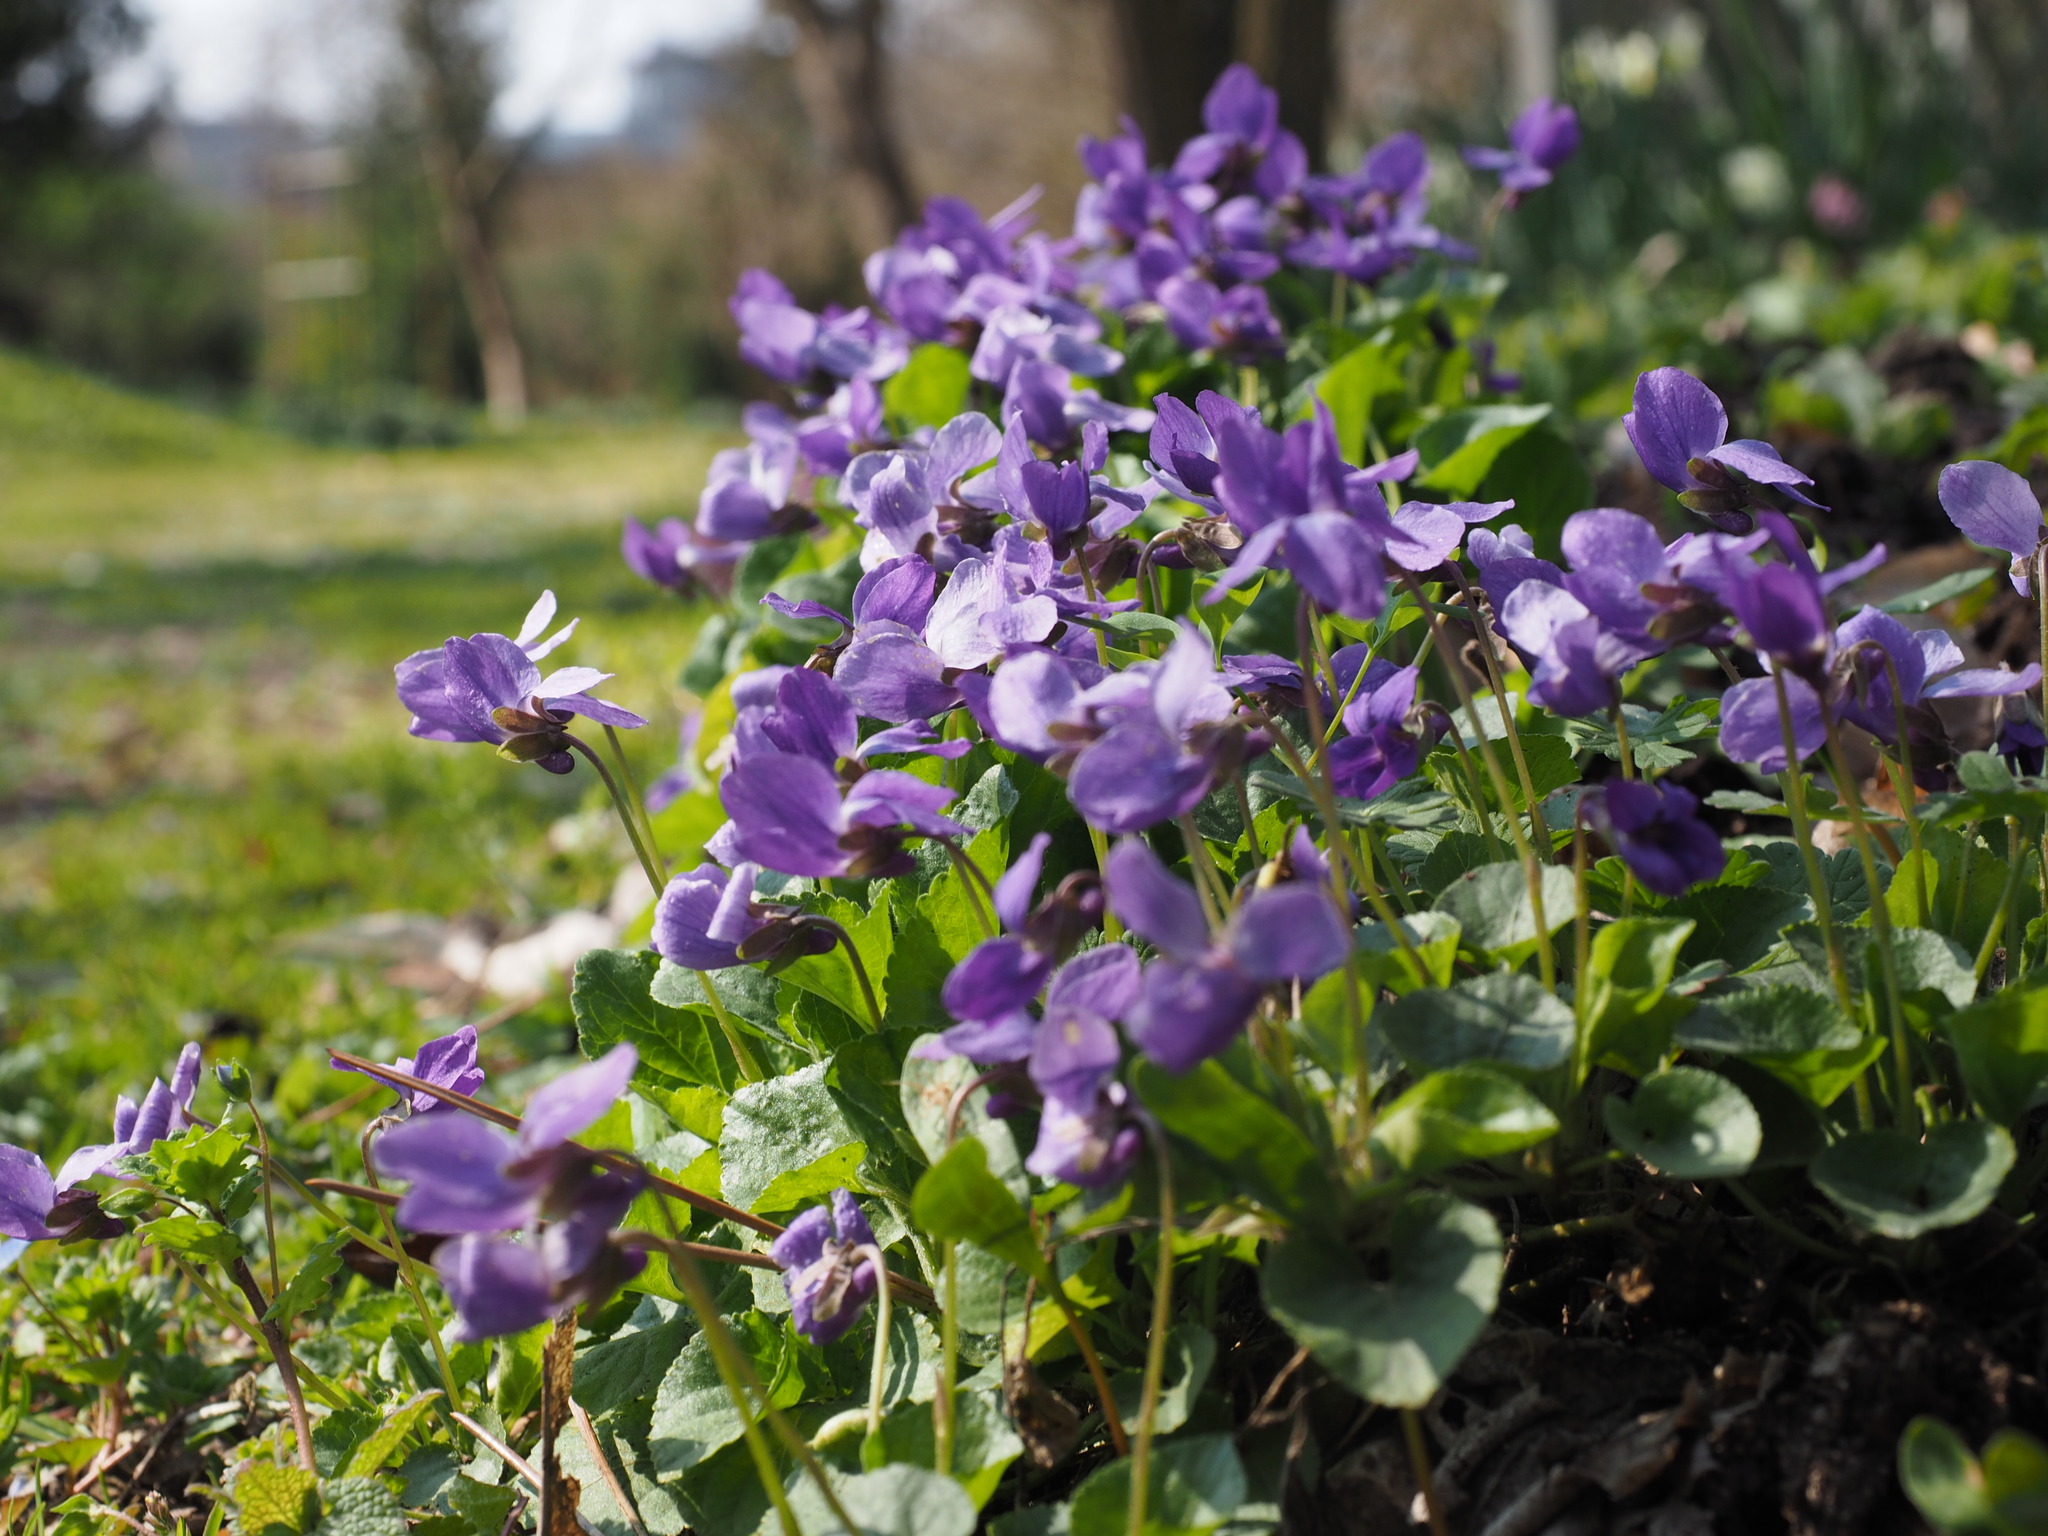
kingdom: Plantae
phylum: Tracheophyta
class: Magnoliopsida
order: Malpighiales
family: Violaceae
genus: Viola
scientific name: Viola odorata
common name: Sweet violet
